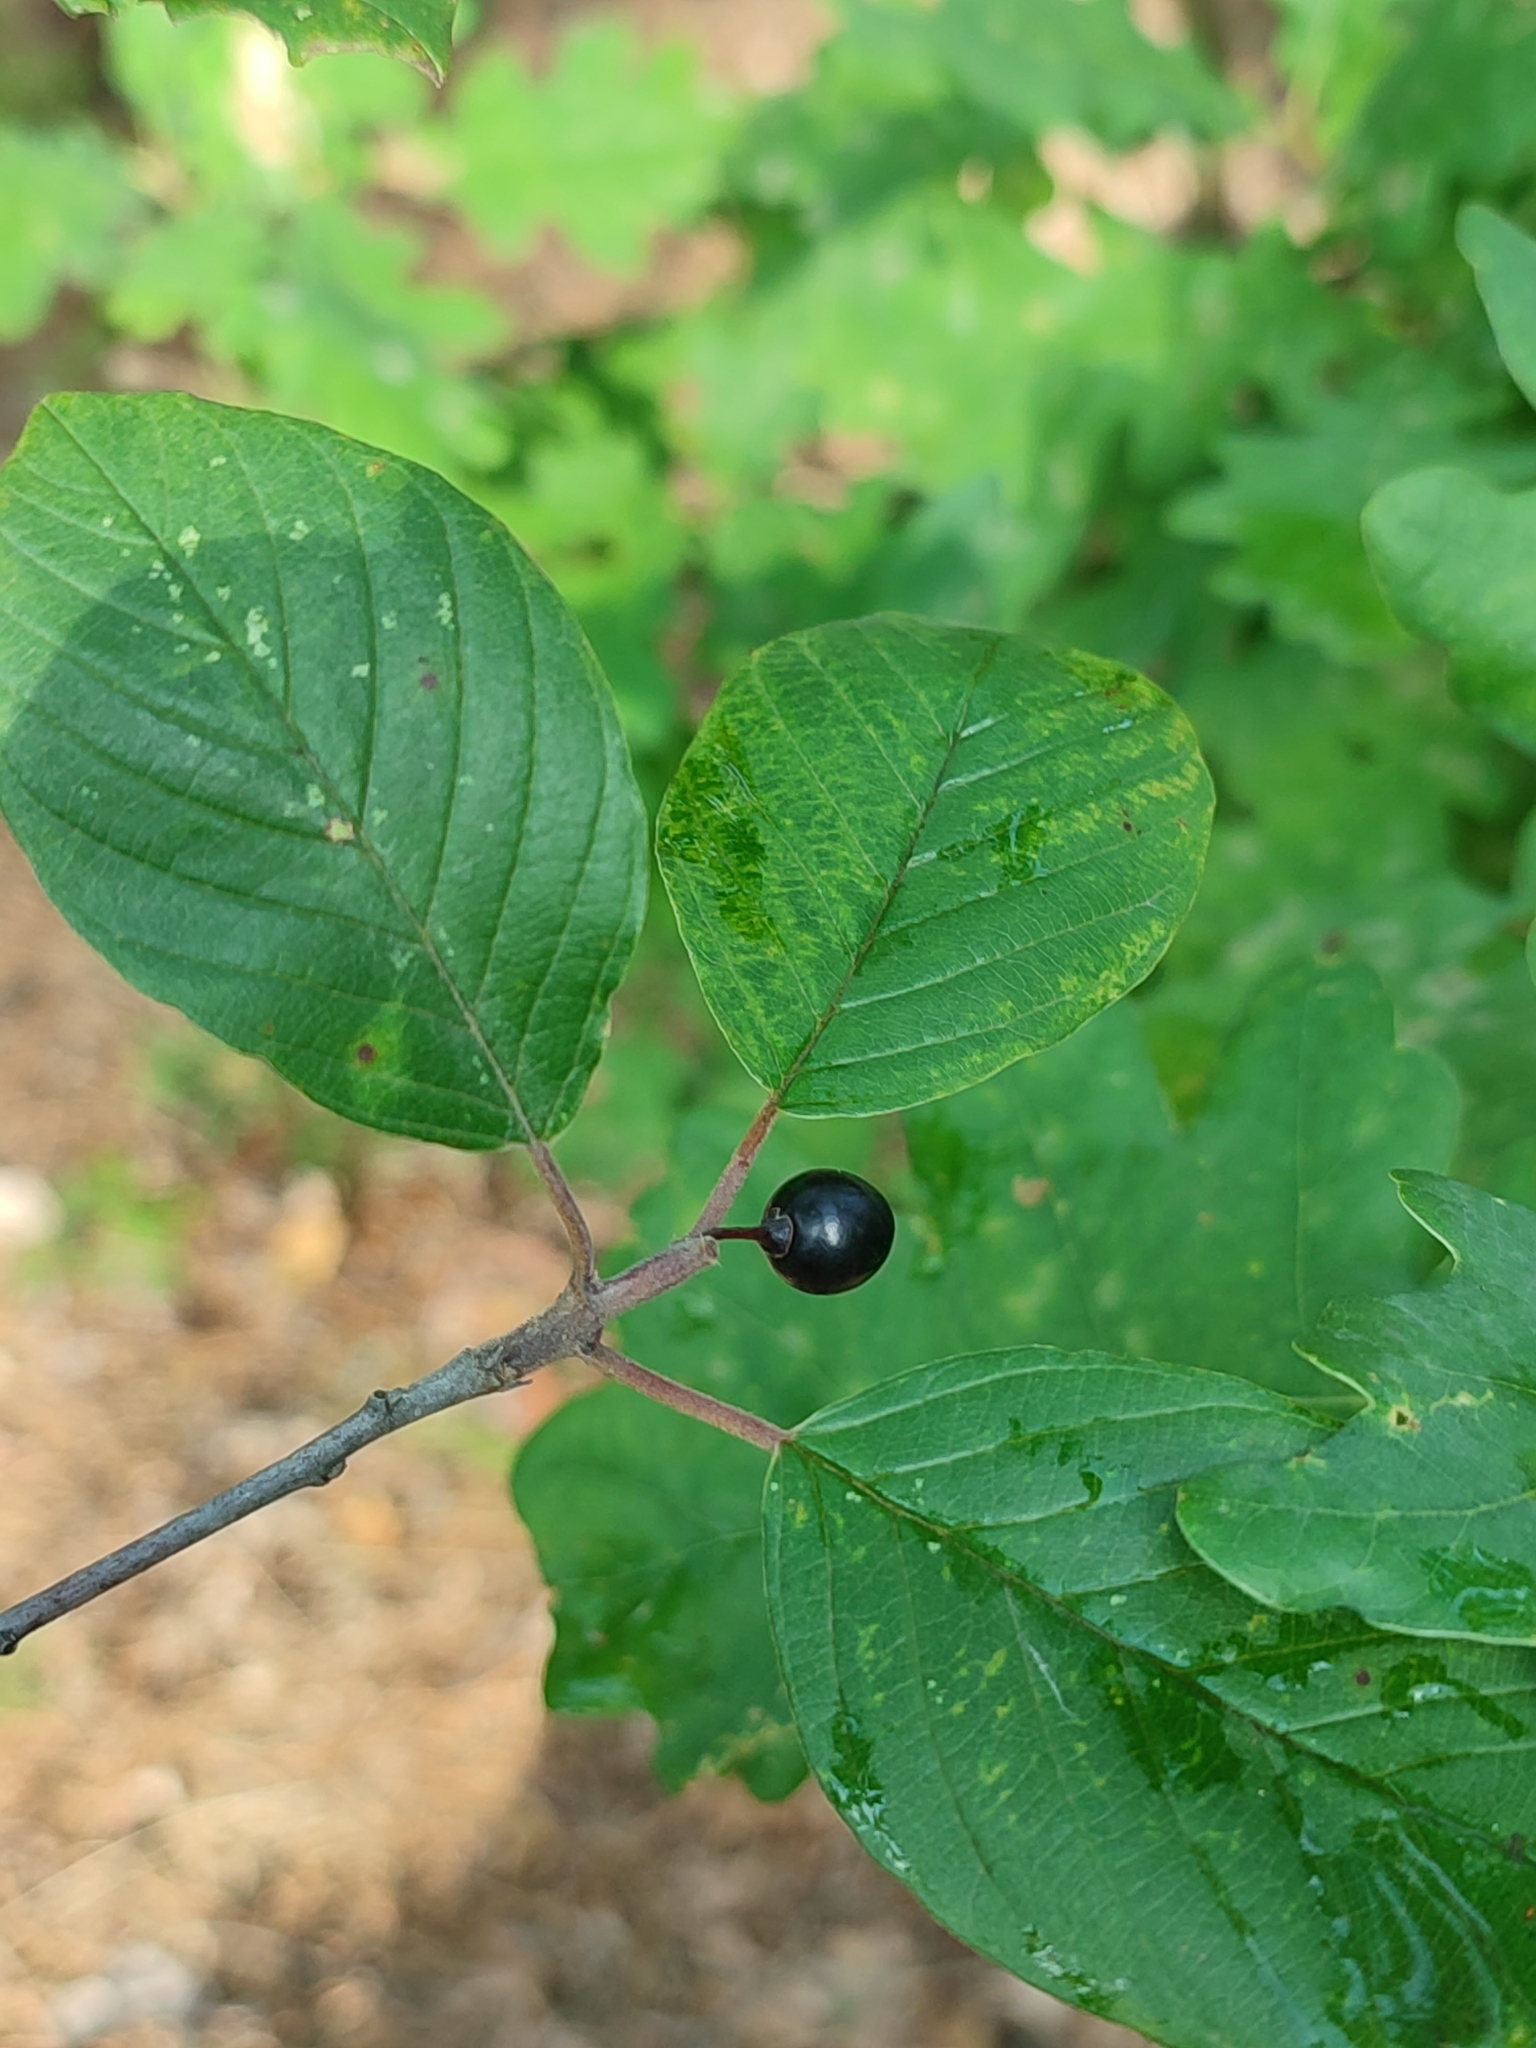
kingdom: Plantae
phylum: Tracheophyta
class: Magnoliopsida
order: Rosales
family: Rhamnaceae
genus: Frangula
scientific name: Frangula alnus
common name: Alder buckthorn
